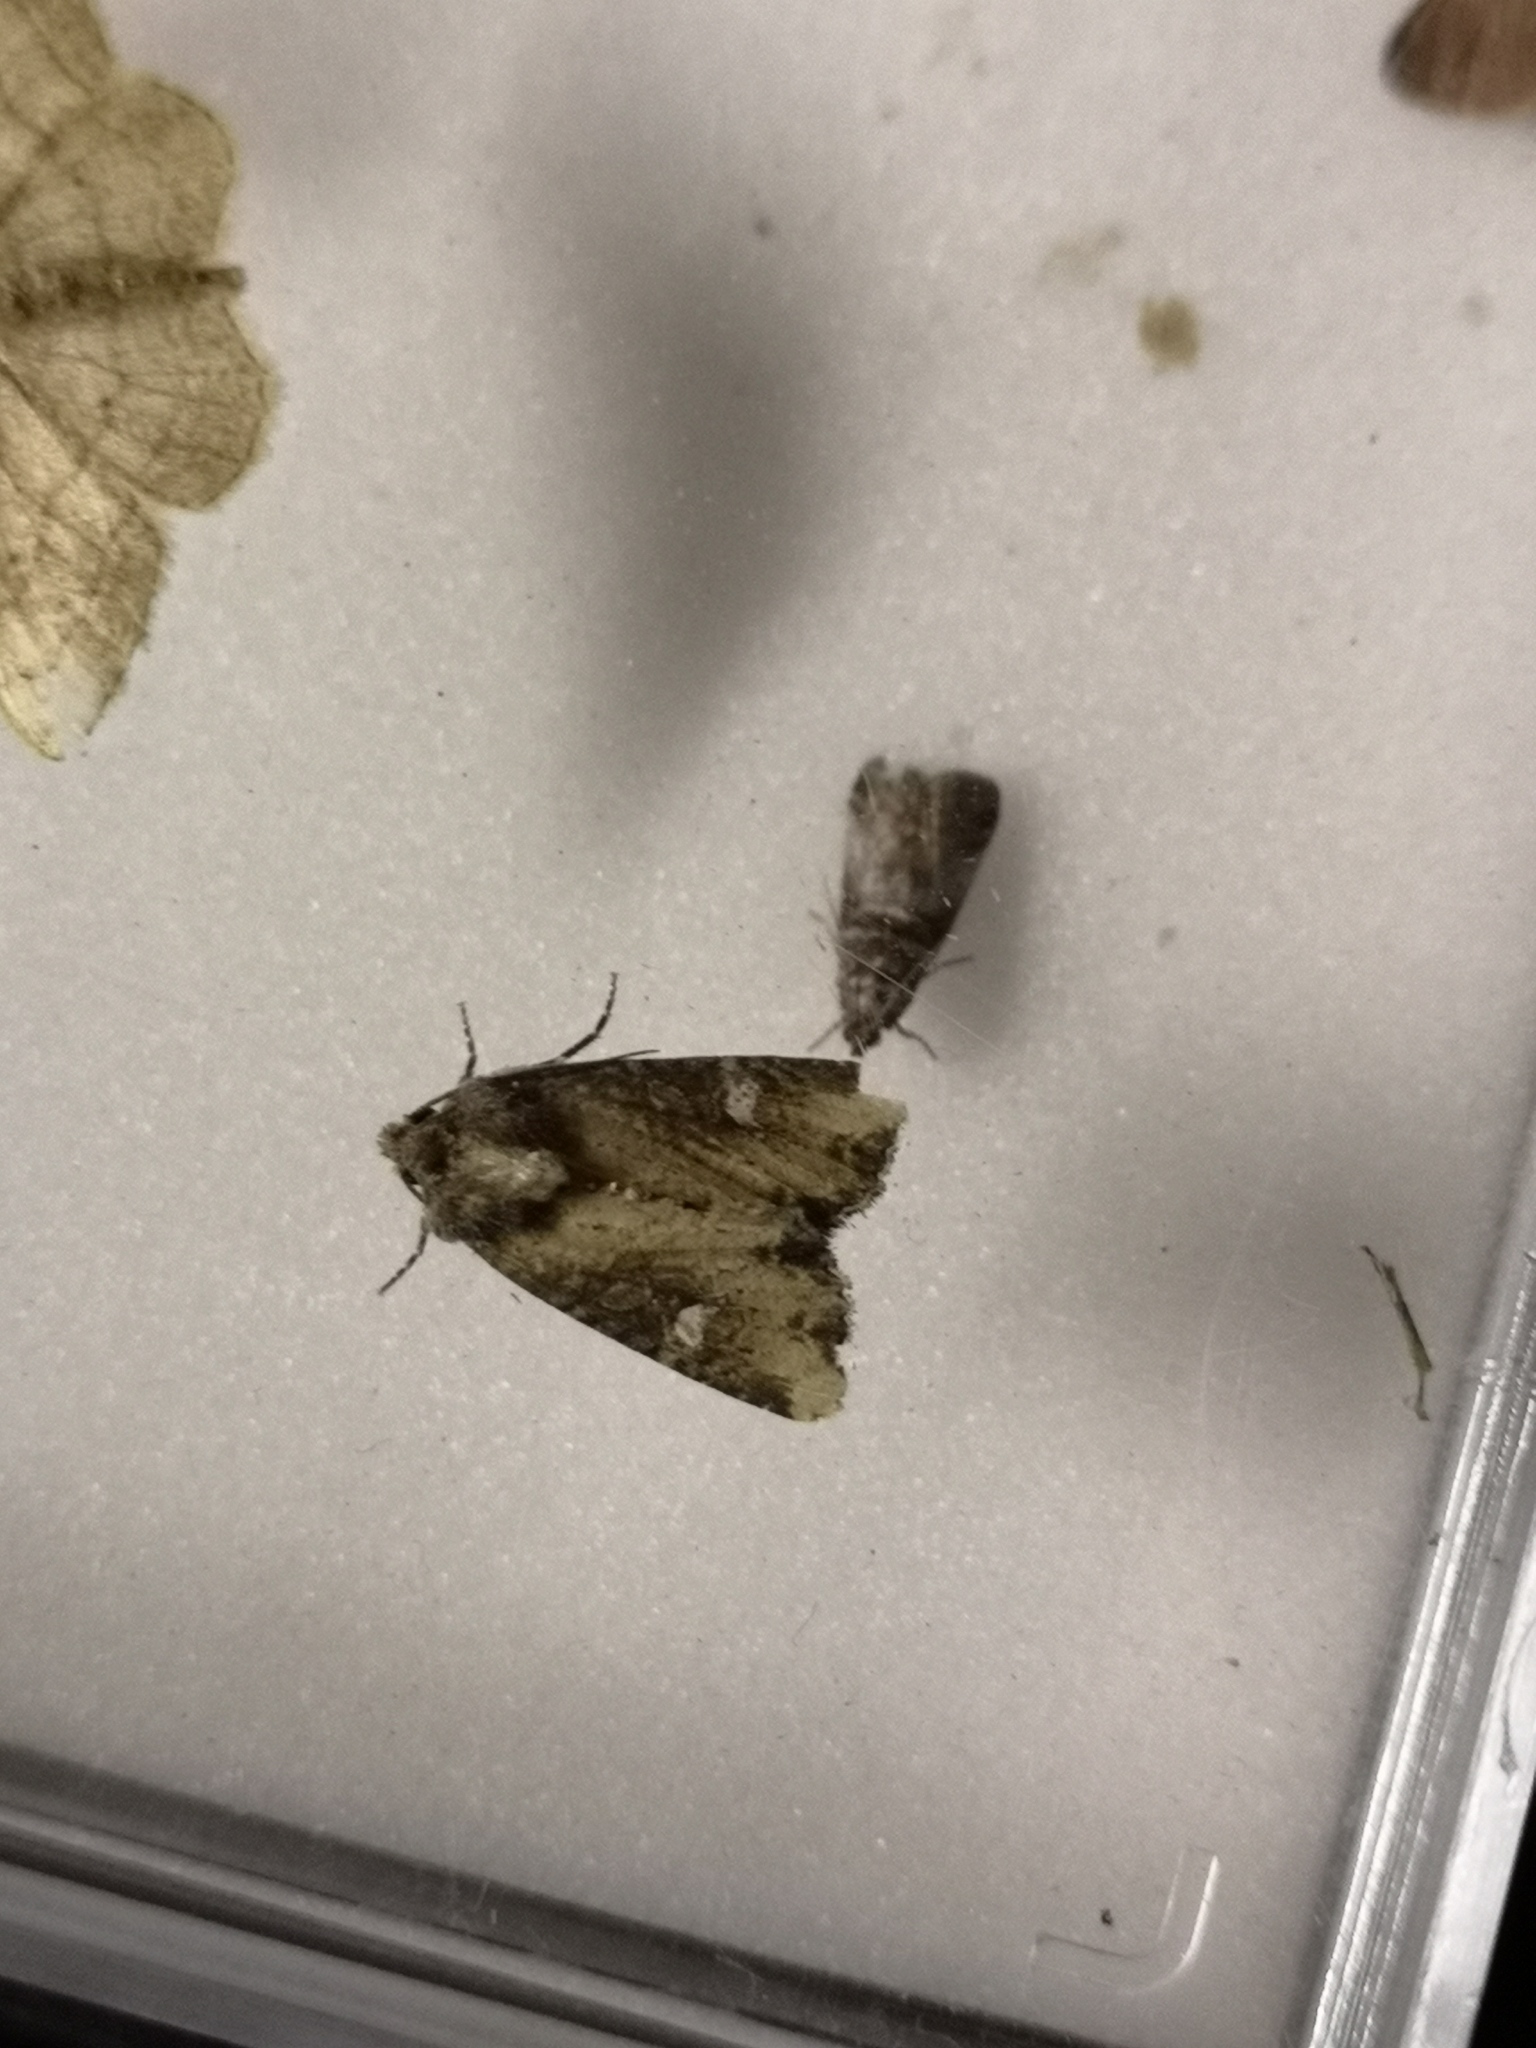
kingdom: Animalia
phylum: Arthropoda
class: Insecta
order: Lepidoptera
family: Noctuidae
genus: Mesapamea
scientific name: Mesapamea
